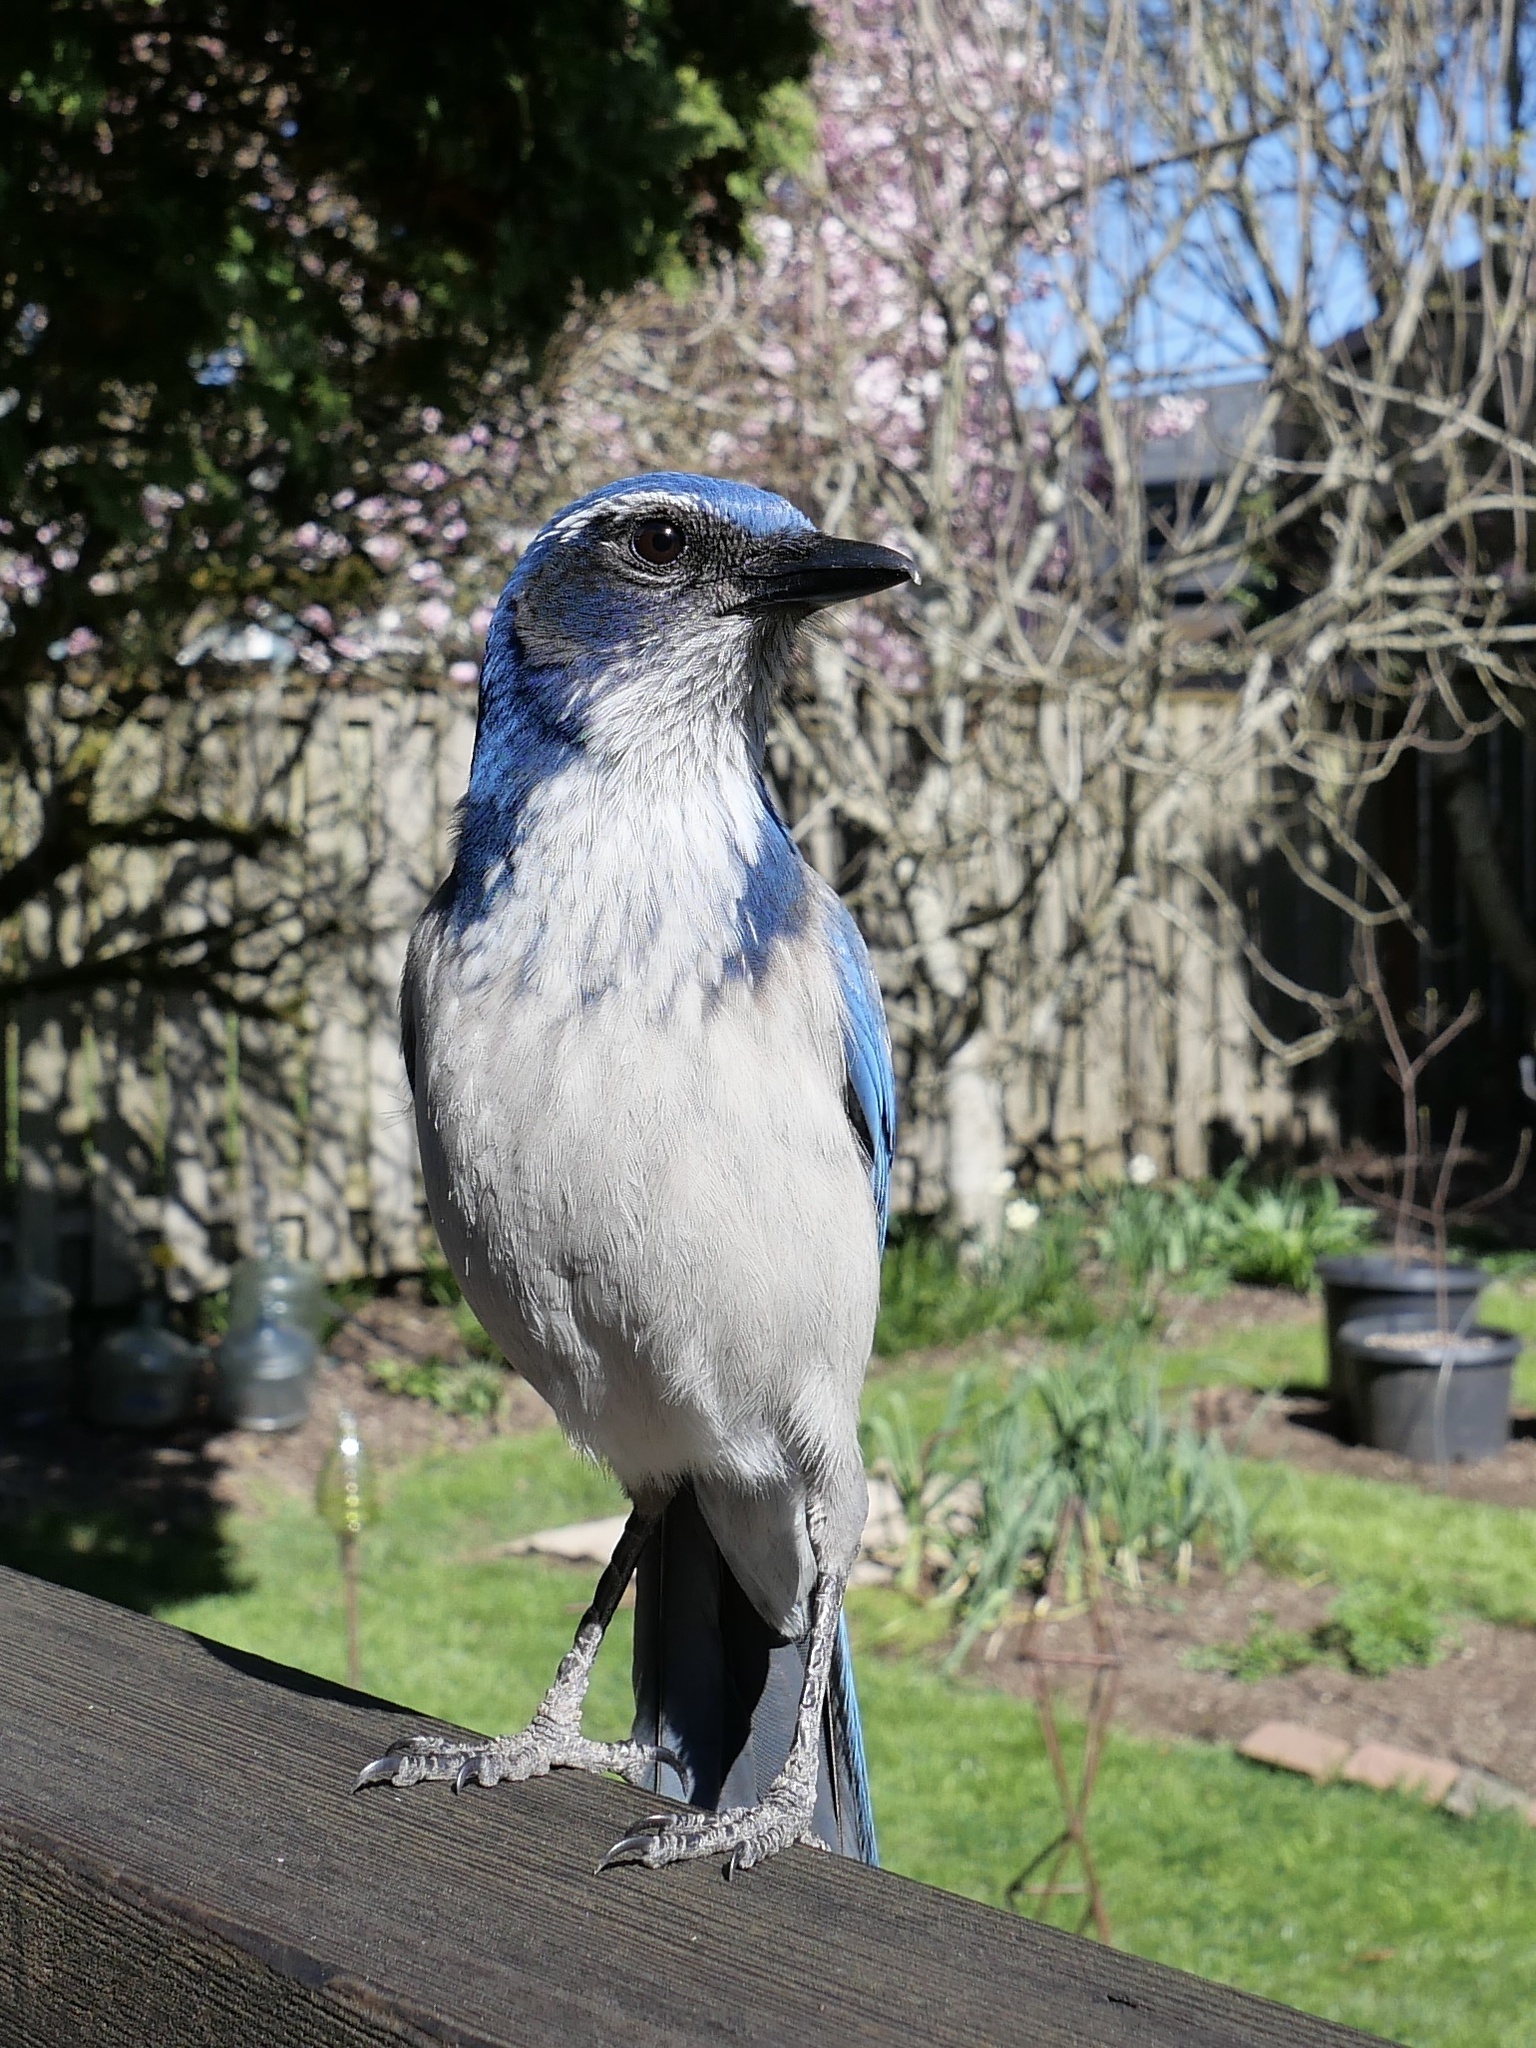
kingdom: Animalia
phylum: Chordata
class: Aves
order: Passeriformes
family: Corvidae
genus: Aphelocoma
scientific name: Aphelocoma californica
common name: California scrub-jay
